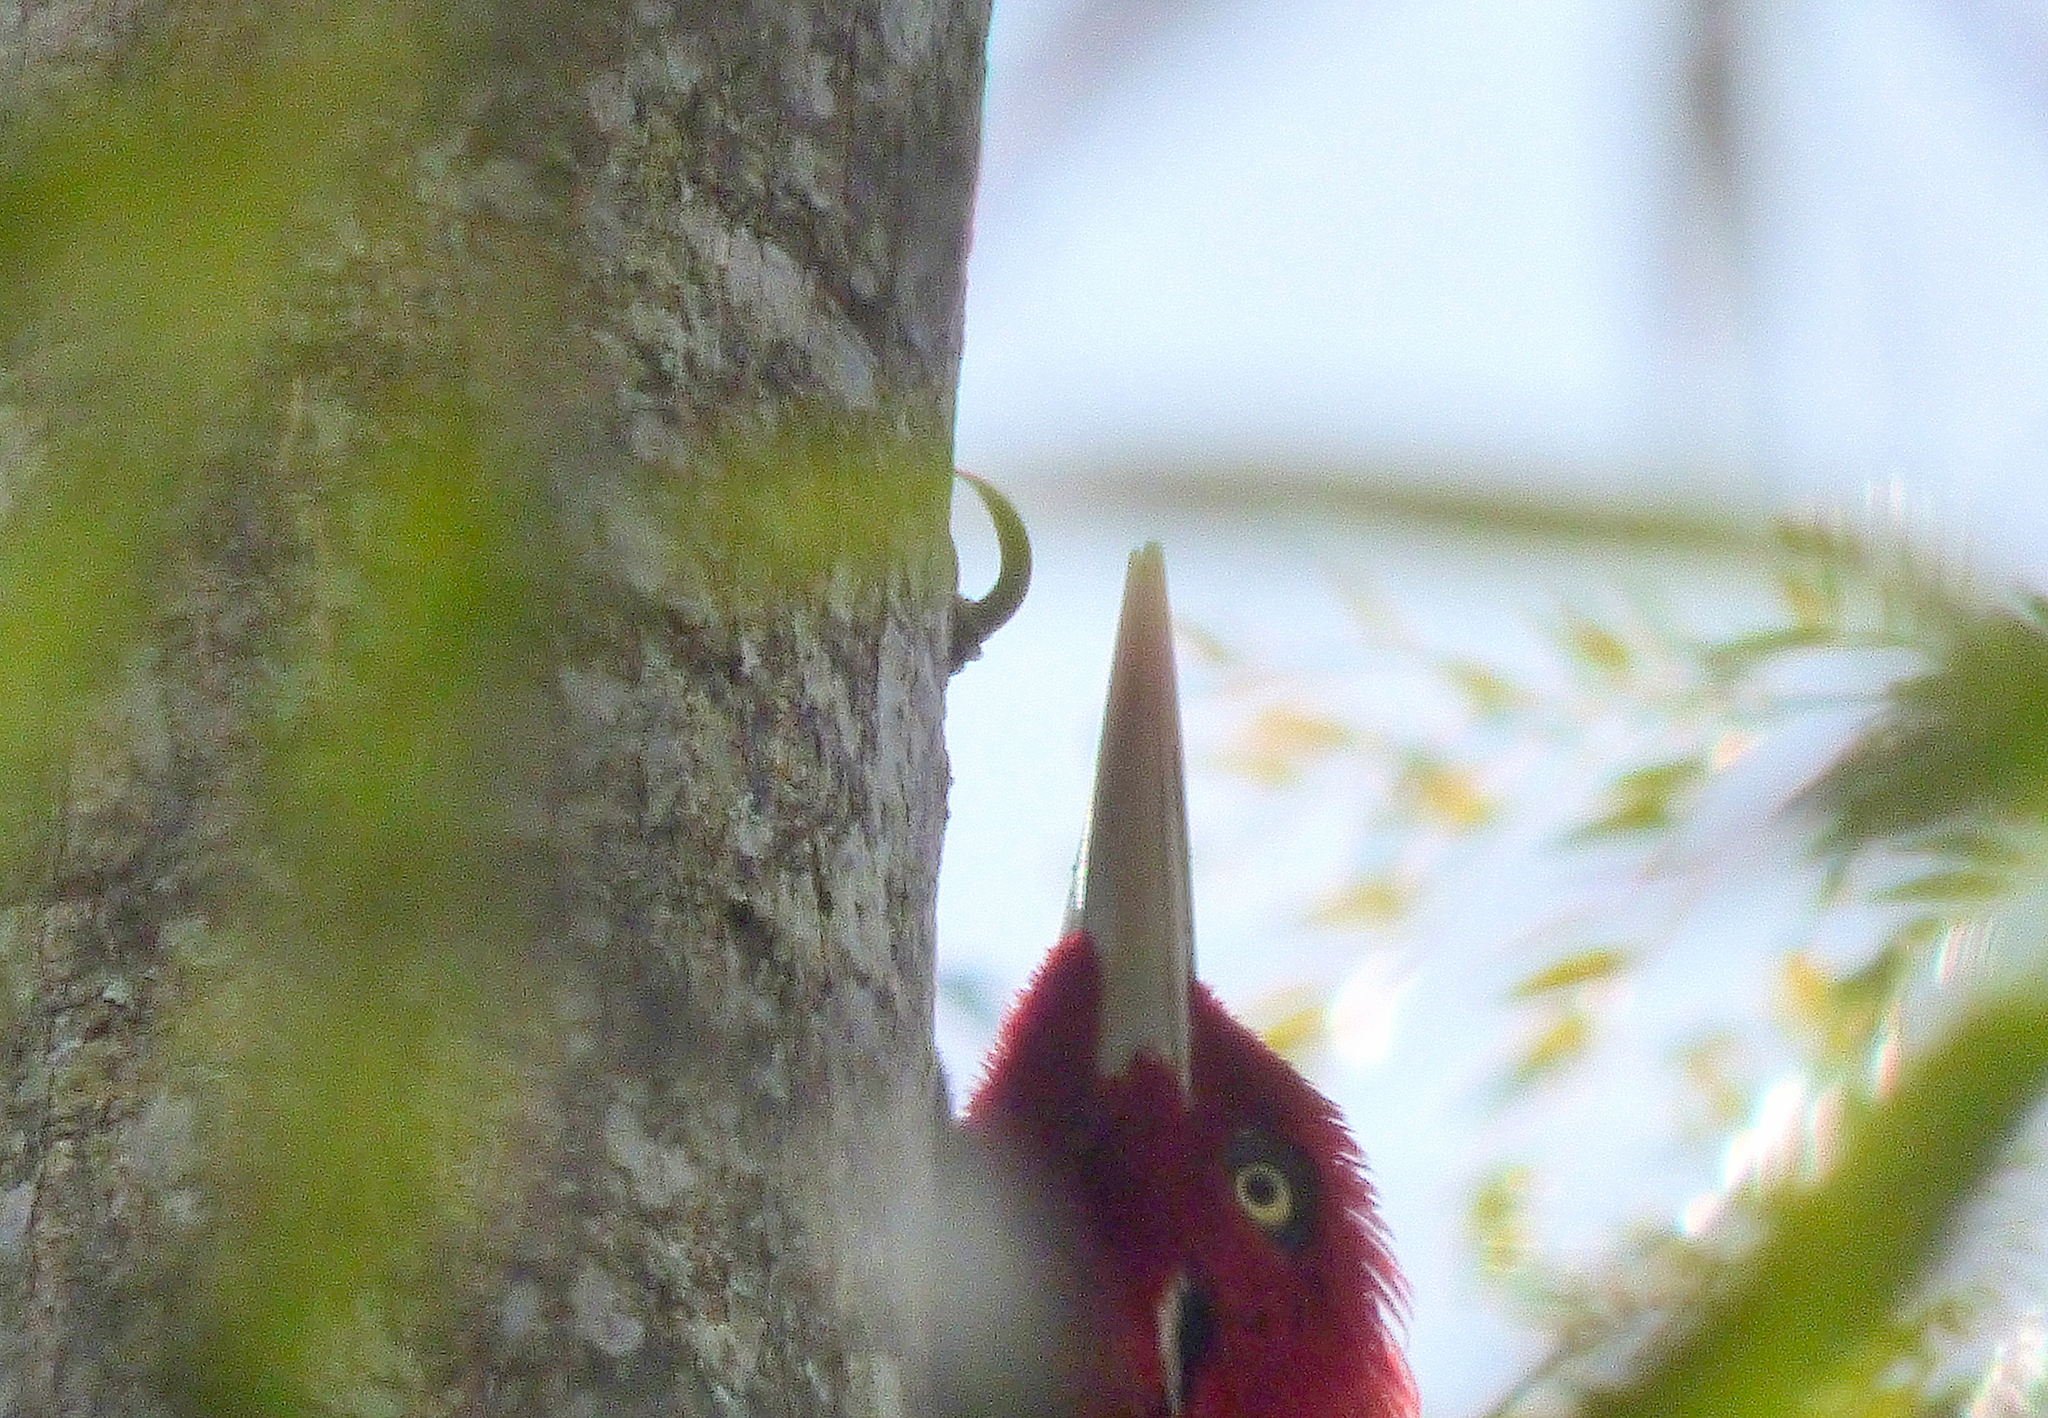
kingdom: Animalia
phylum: Chordata
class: Aves
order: Piciformes
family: Picidae
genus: Campephilus
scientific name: Campephilus leucopogon
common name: Cream-backed woodpecker
